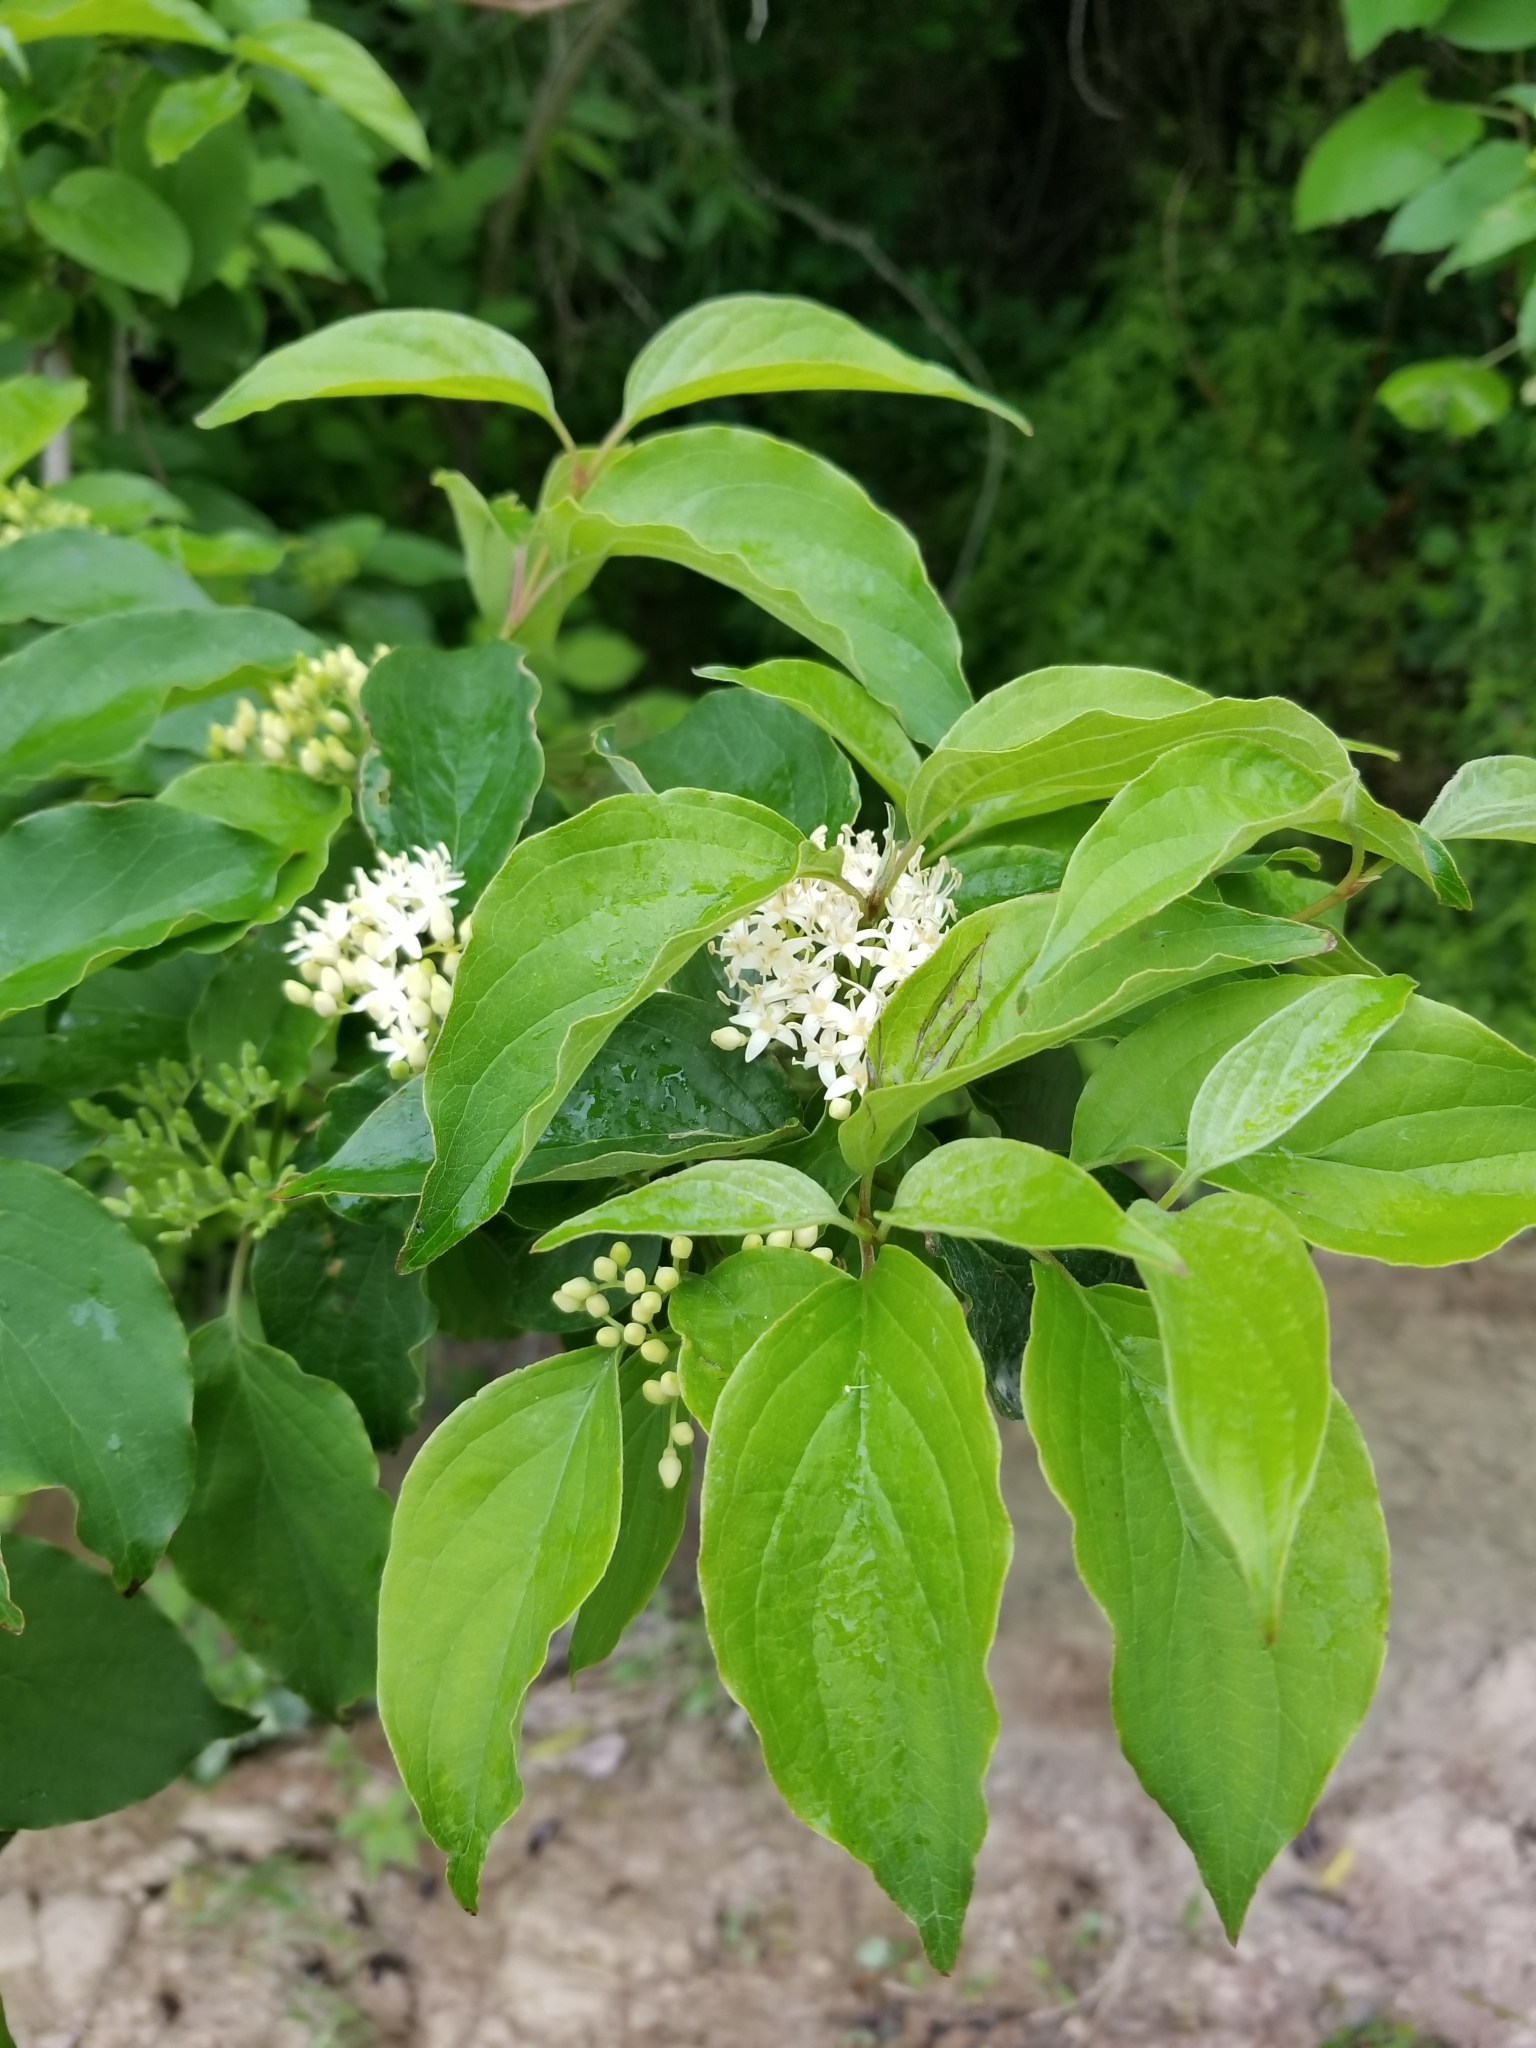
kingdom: Plantae
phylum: Tracheophyta
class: Magnoliopsida
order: Cornales
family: Cornaceae
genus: Cornus
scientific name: Cornus drummondii
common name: Rough-leaf dogwood
